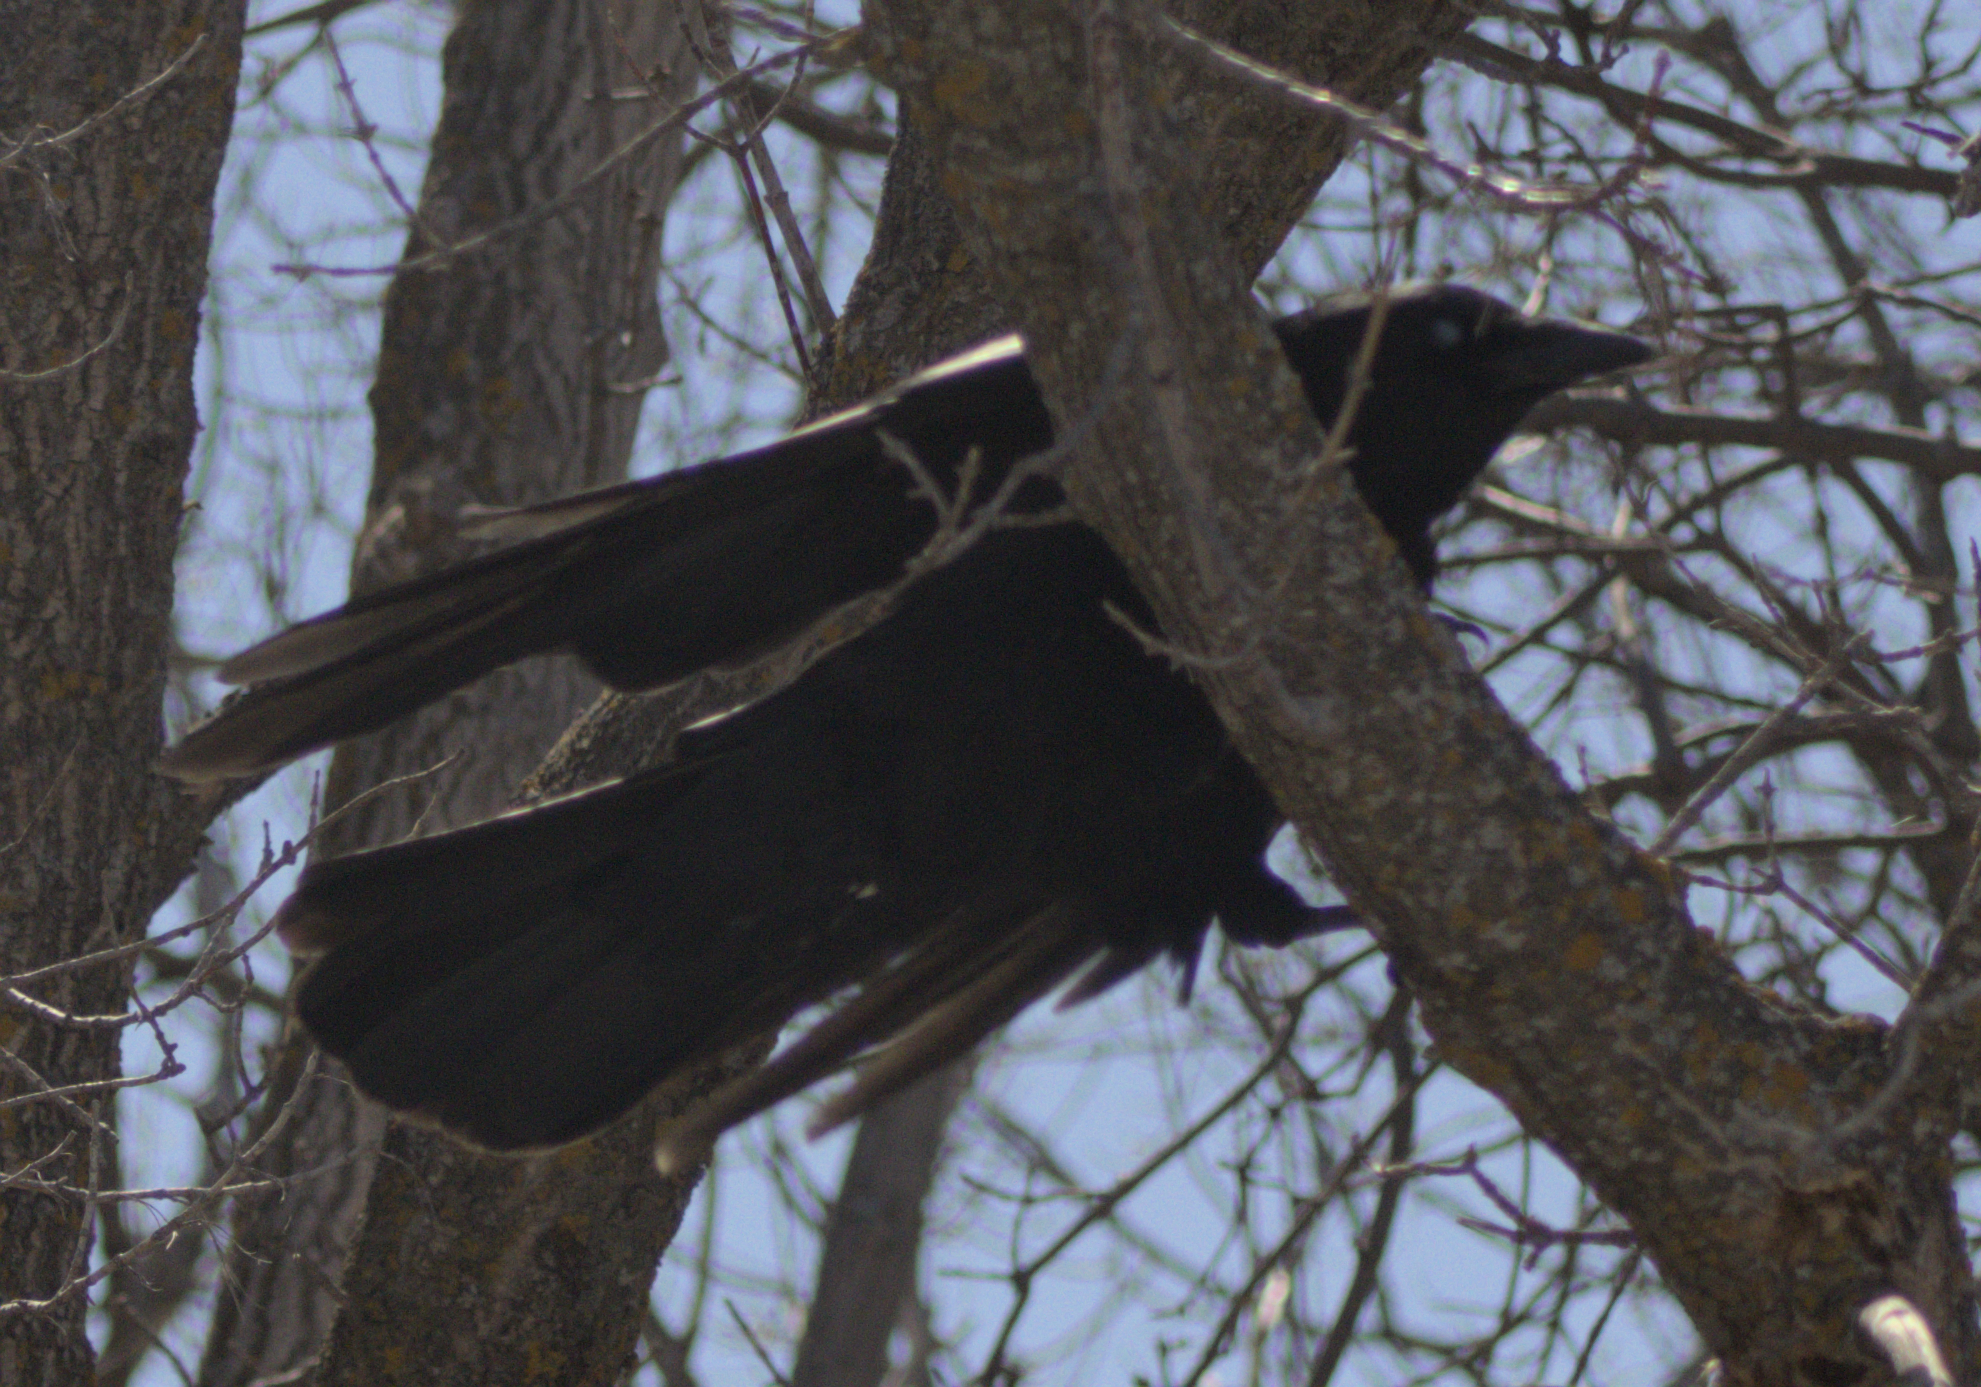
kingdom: Animalia
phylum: Chordata
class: Aves
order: Passeriformes
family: Corvidae
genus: Corvus
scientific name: Corvus brachyrhynchos
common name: American crow
